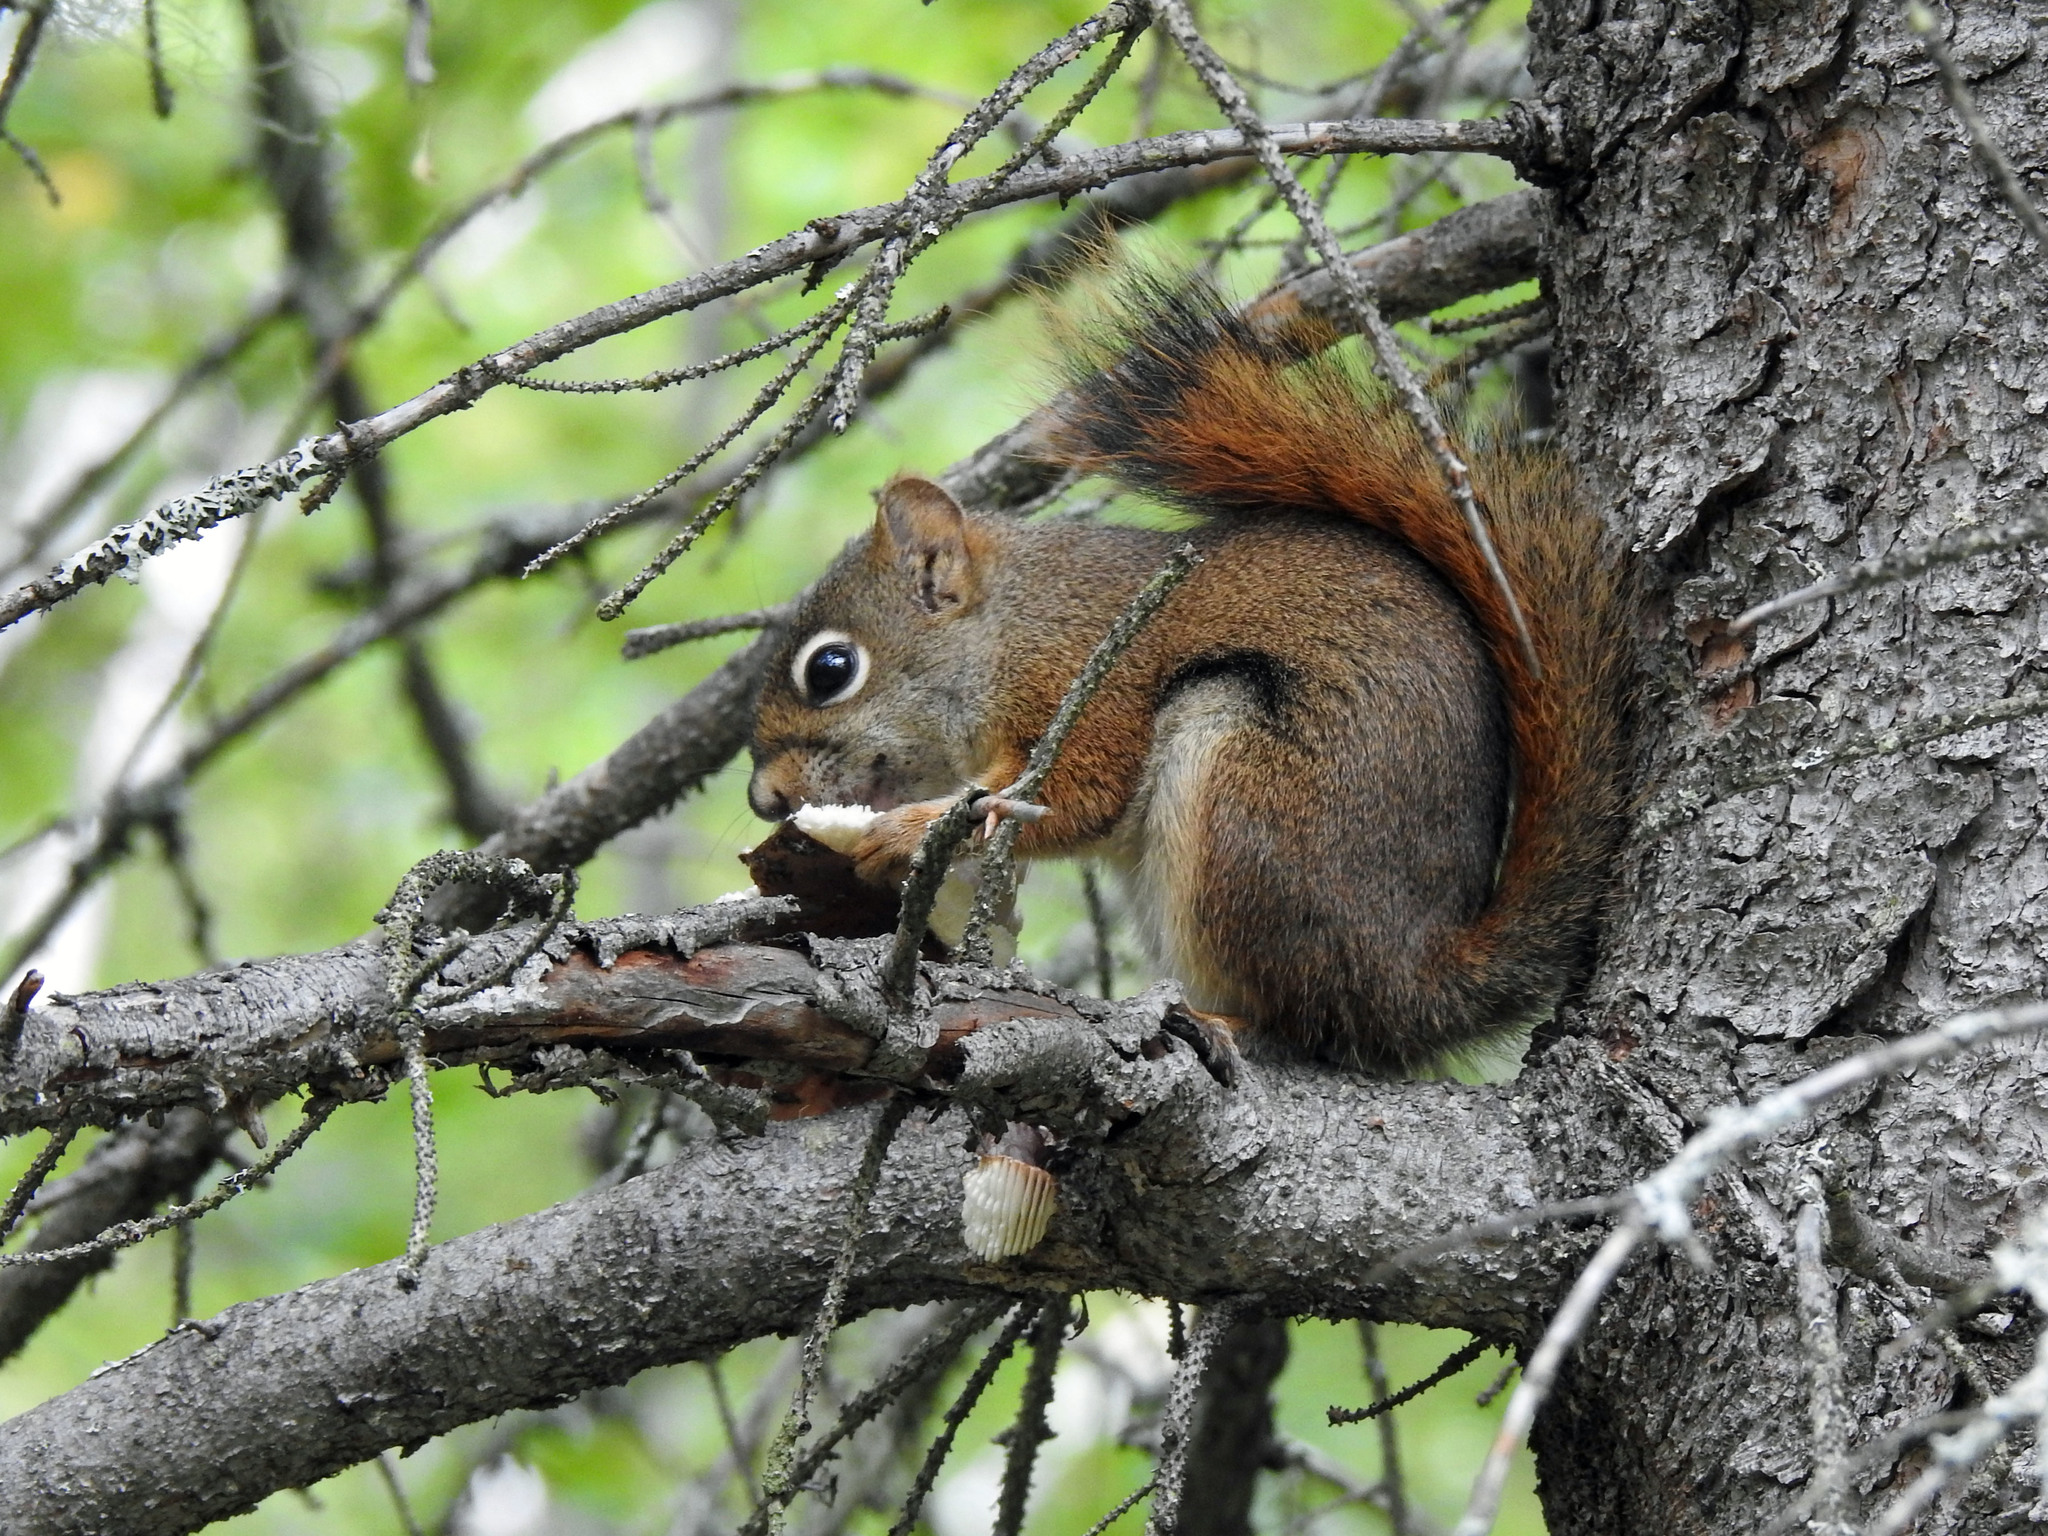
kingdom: Animalia
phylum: Chordata
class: Mammalia
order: Rodentia
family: Sciuridae
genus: Tamiasciurus
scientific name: Tamiasciurus hudsonicus
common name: Red squirrel
